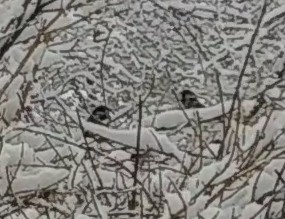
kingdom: Animalia
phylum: Chordata
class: Aves
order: Passeriformes
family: Passeridae
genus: Passer
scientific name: Passer domesticus
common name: House sparrow
